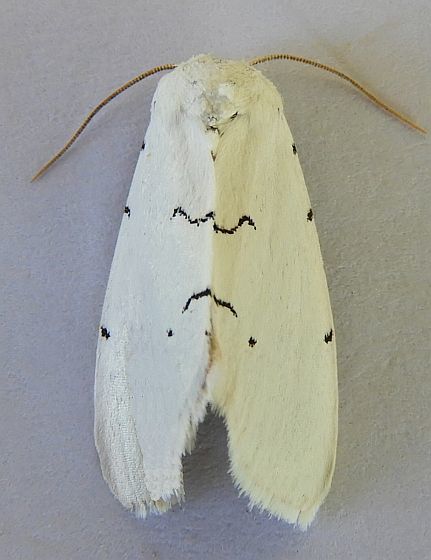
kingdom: Animalia
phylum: Arthropoda
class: Insecta
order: Lepidoptera
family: Noctuidae
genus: Hemioslaria
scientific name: Hemioslaria pima
